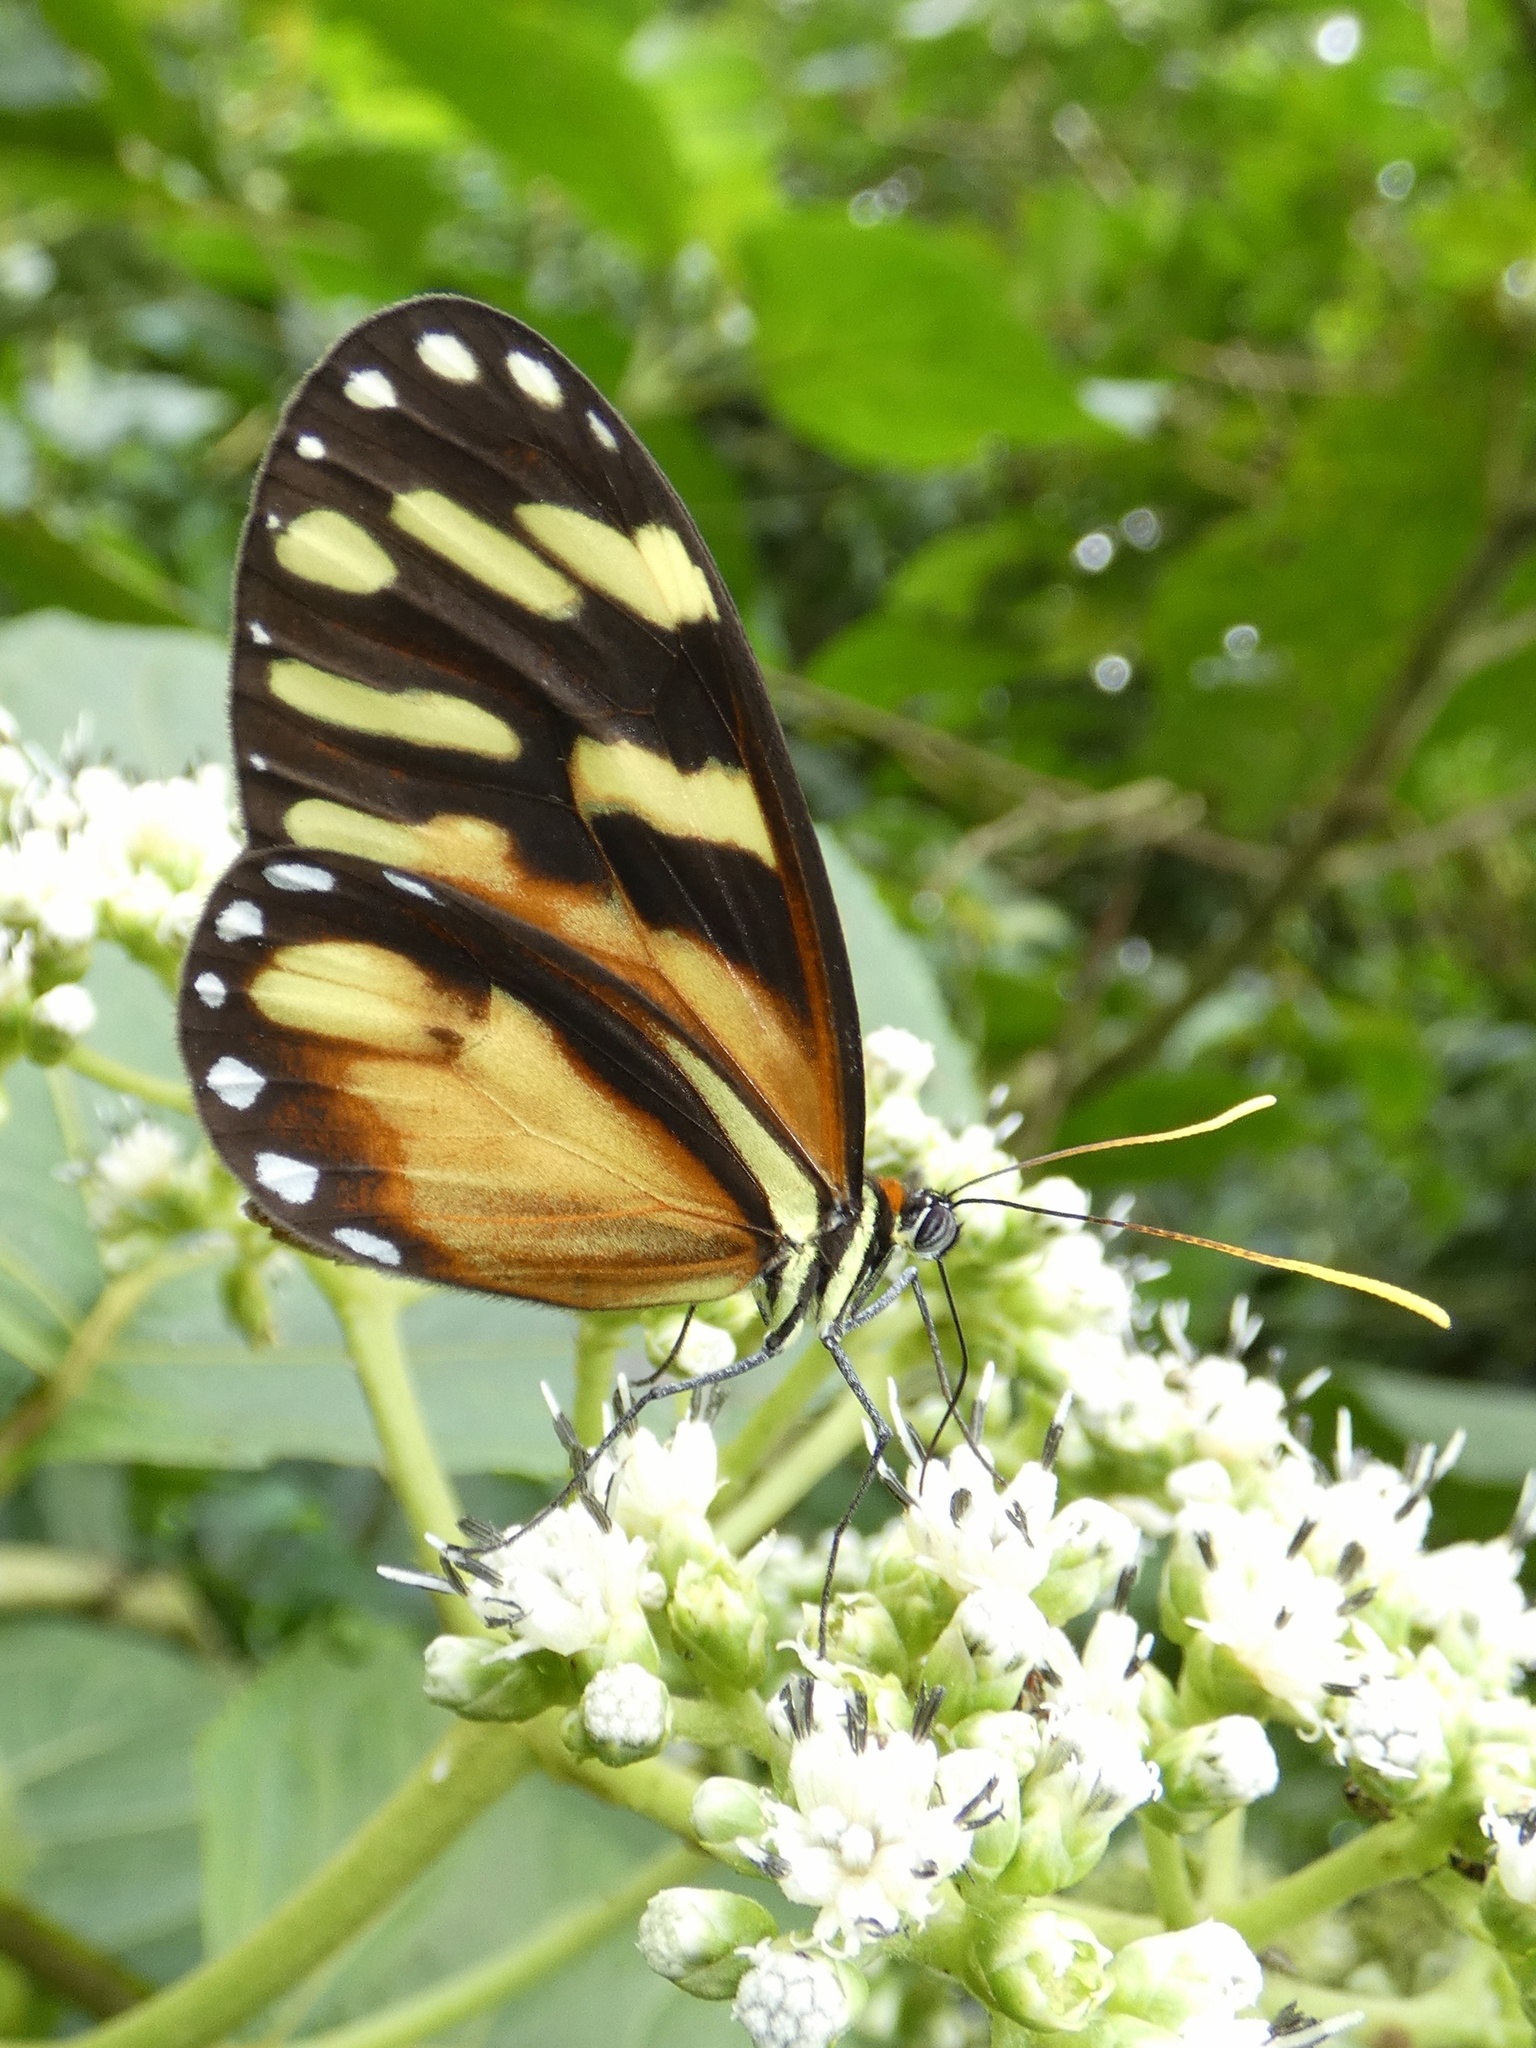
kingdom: Animalia
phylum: Arthropoda
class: Insecta
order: Lepidoptera
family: Nymphalidae
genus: Ithomia
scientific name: Ithomia heraldica
